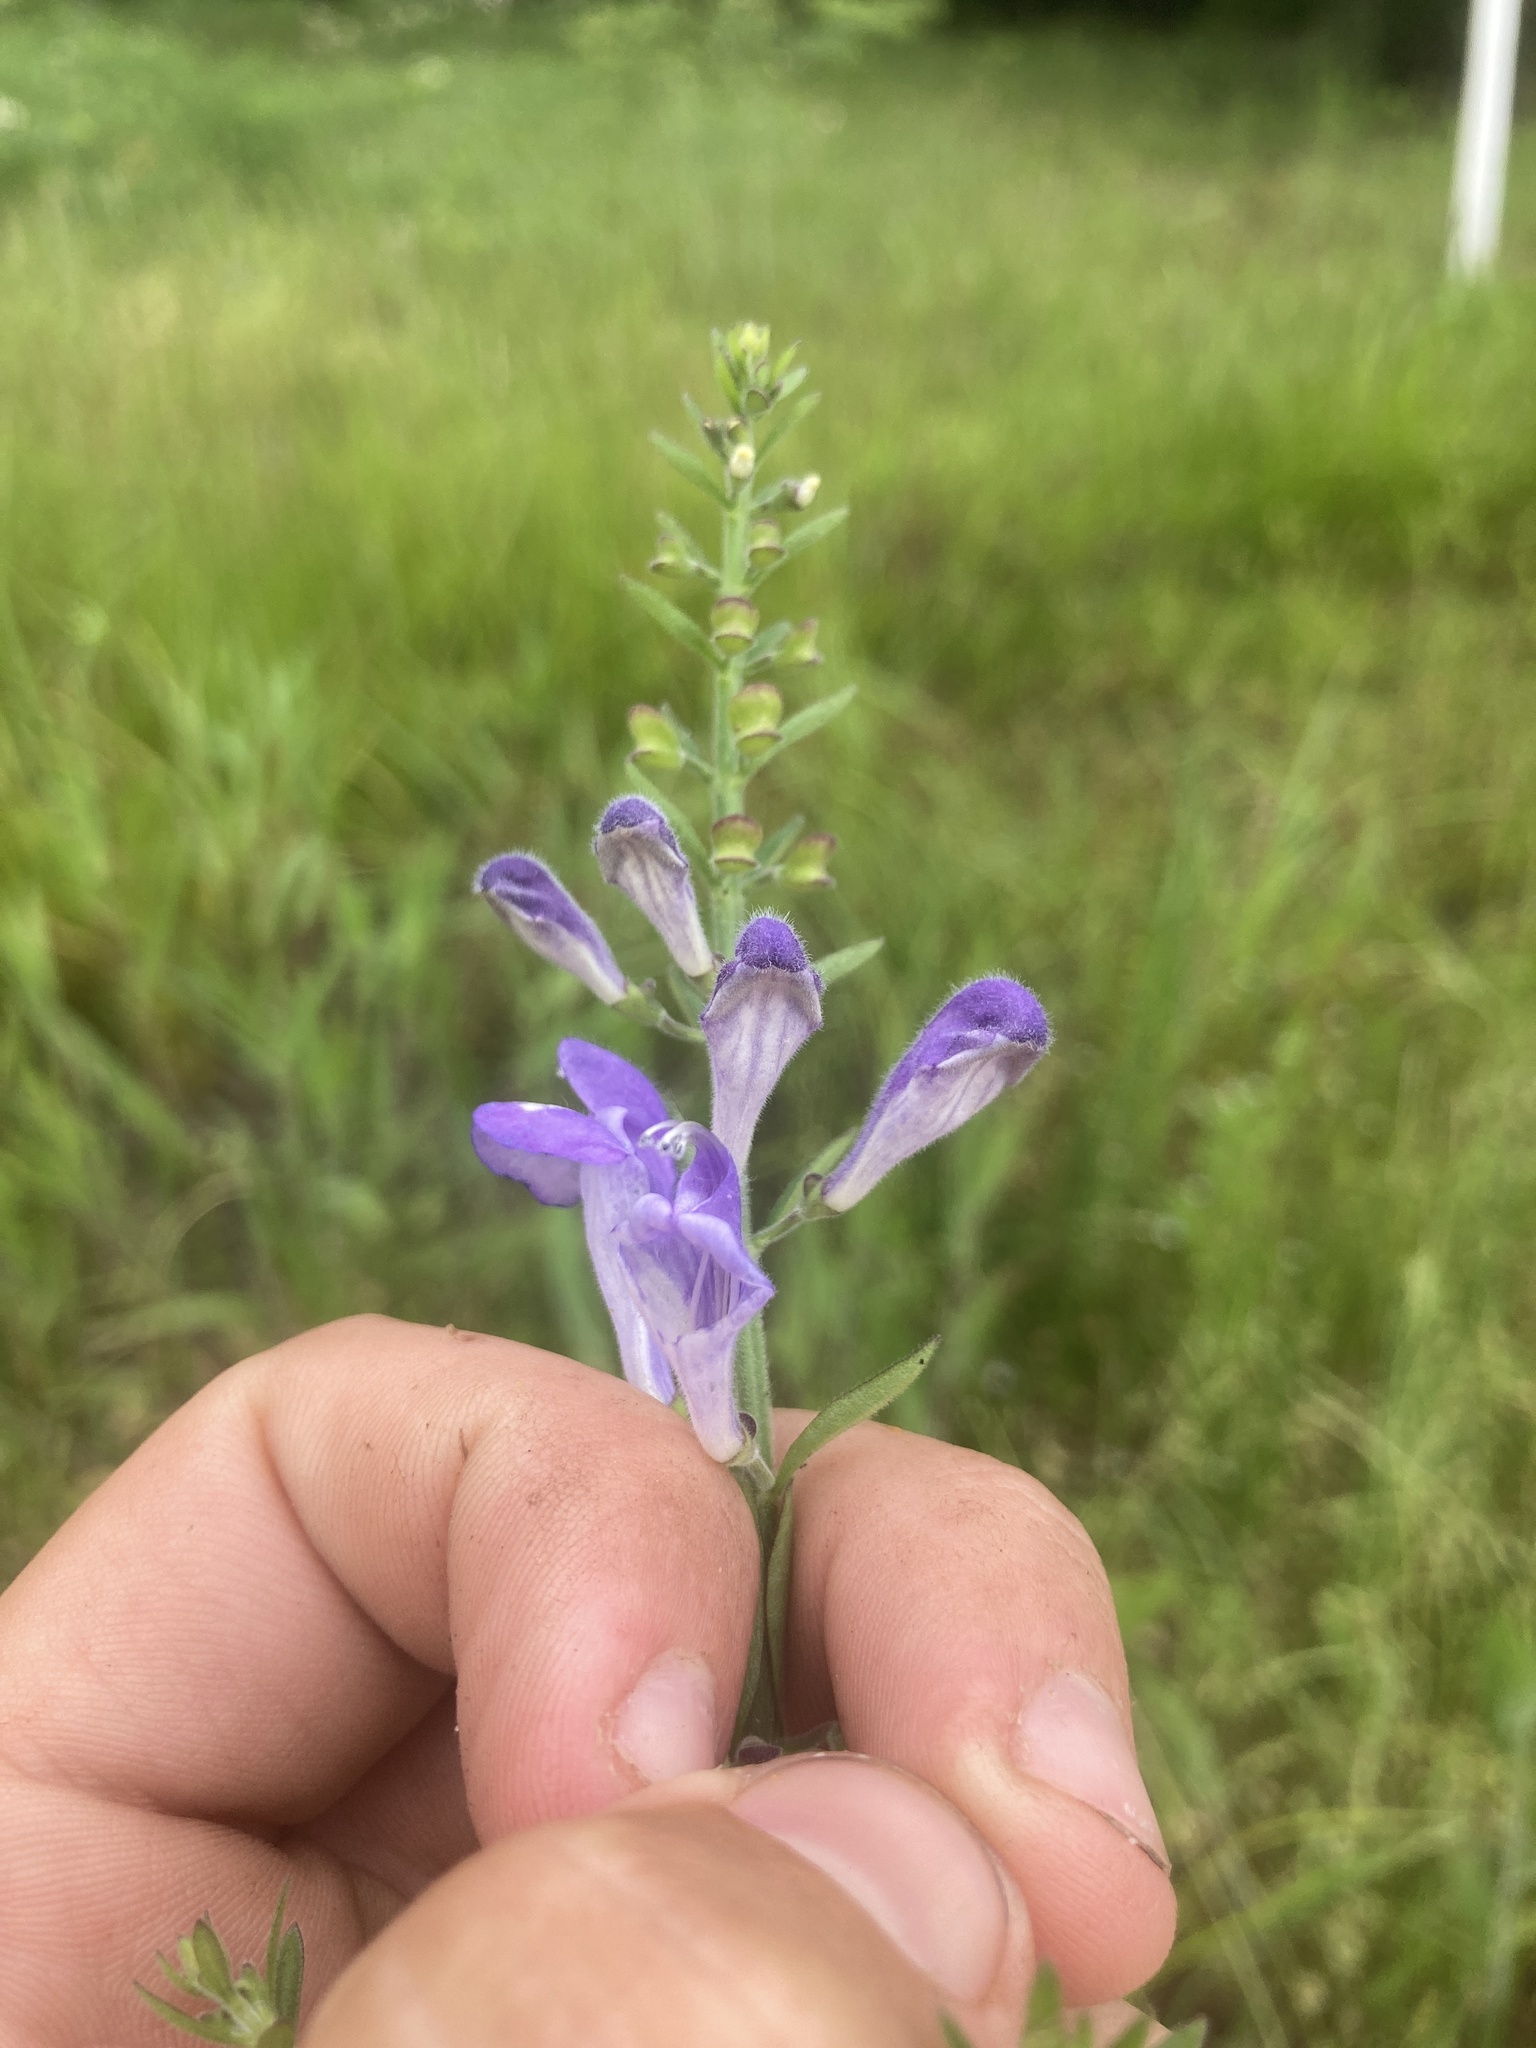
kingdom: Plantae
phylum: Tracheophyta
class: Magnoliopsida
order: Lamiales
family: Lamiaceae
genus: Scutellaria
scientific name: Scutellaria integrifolia
